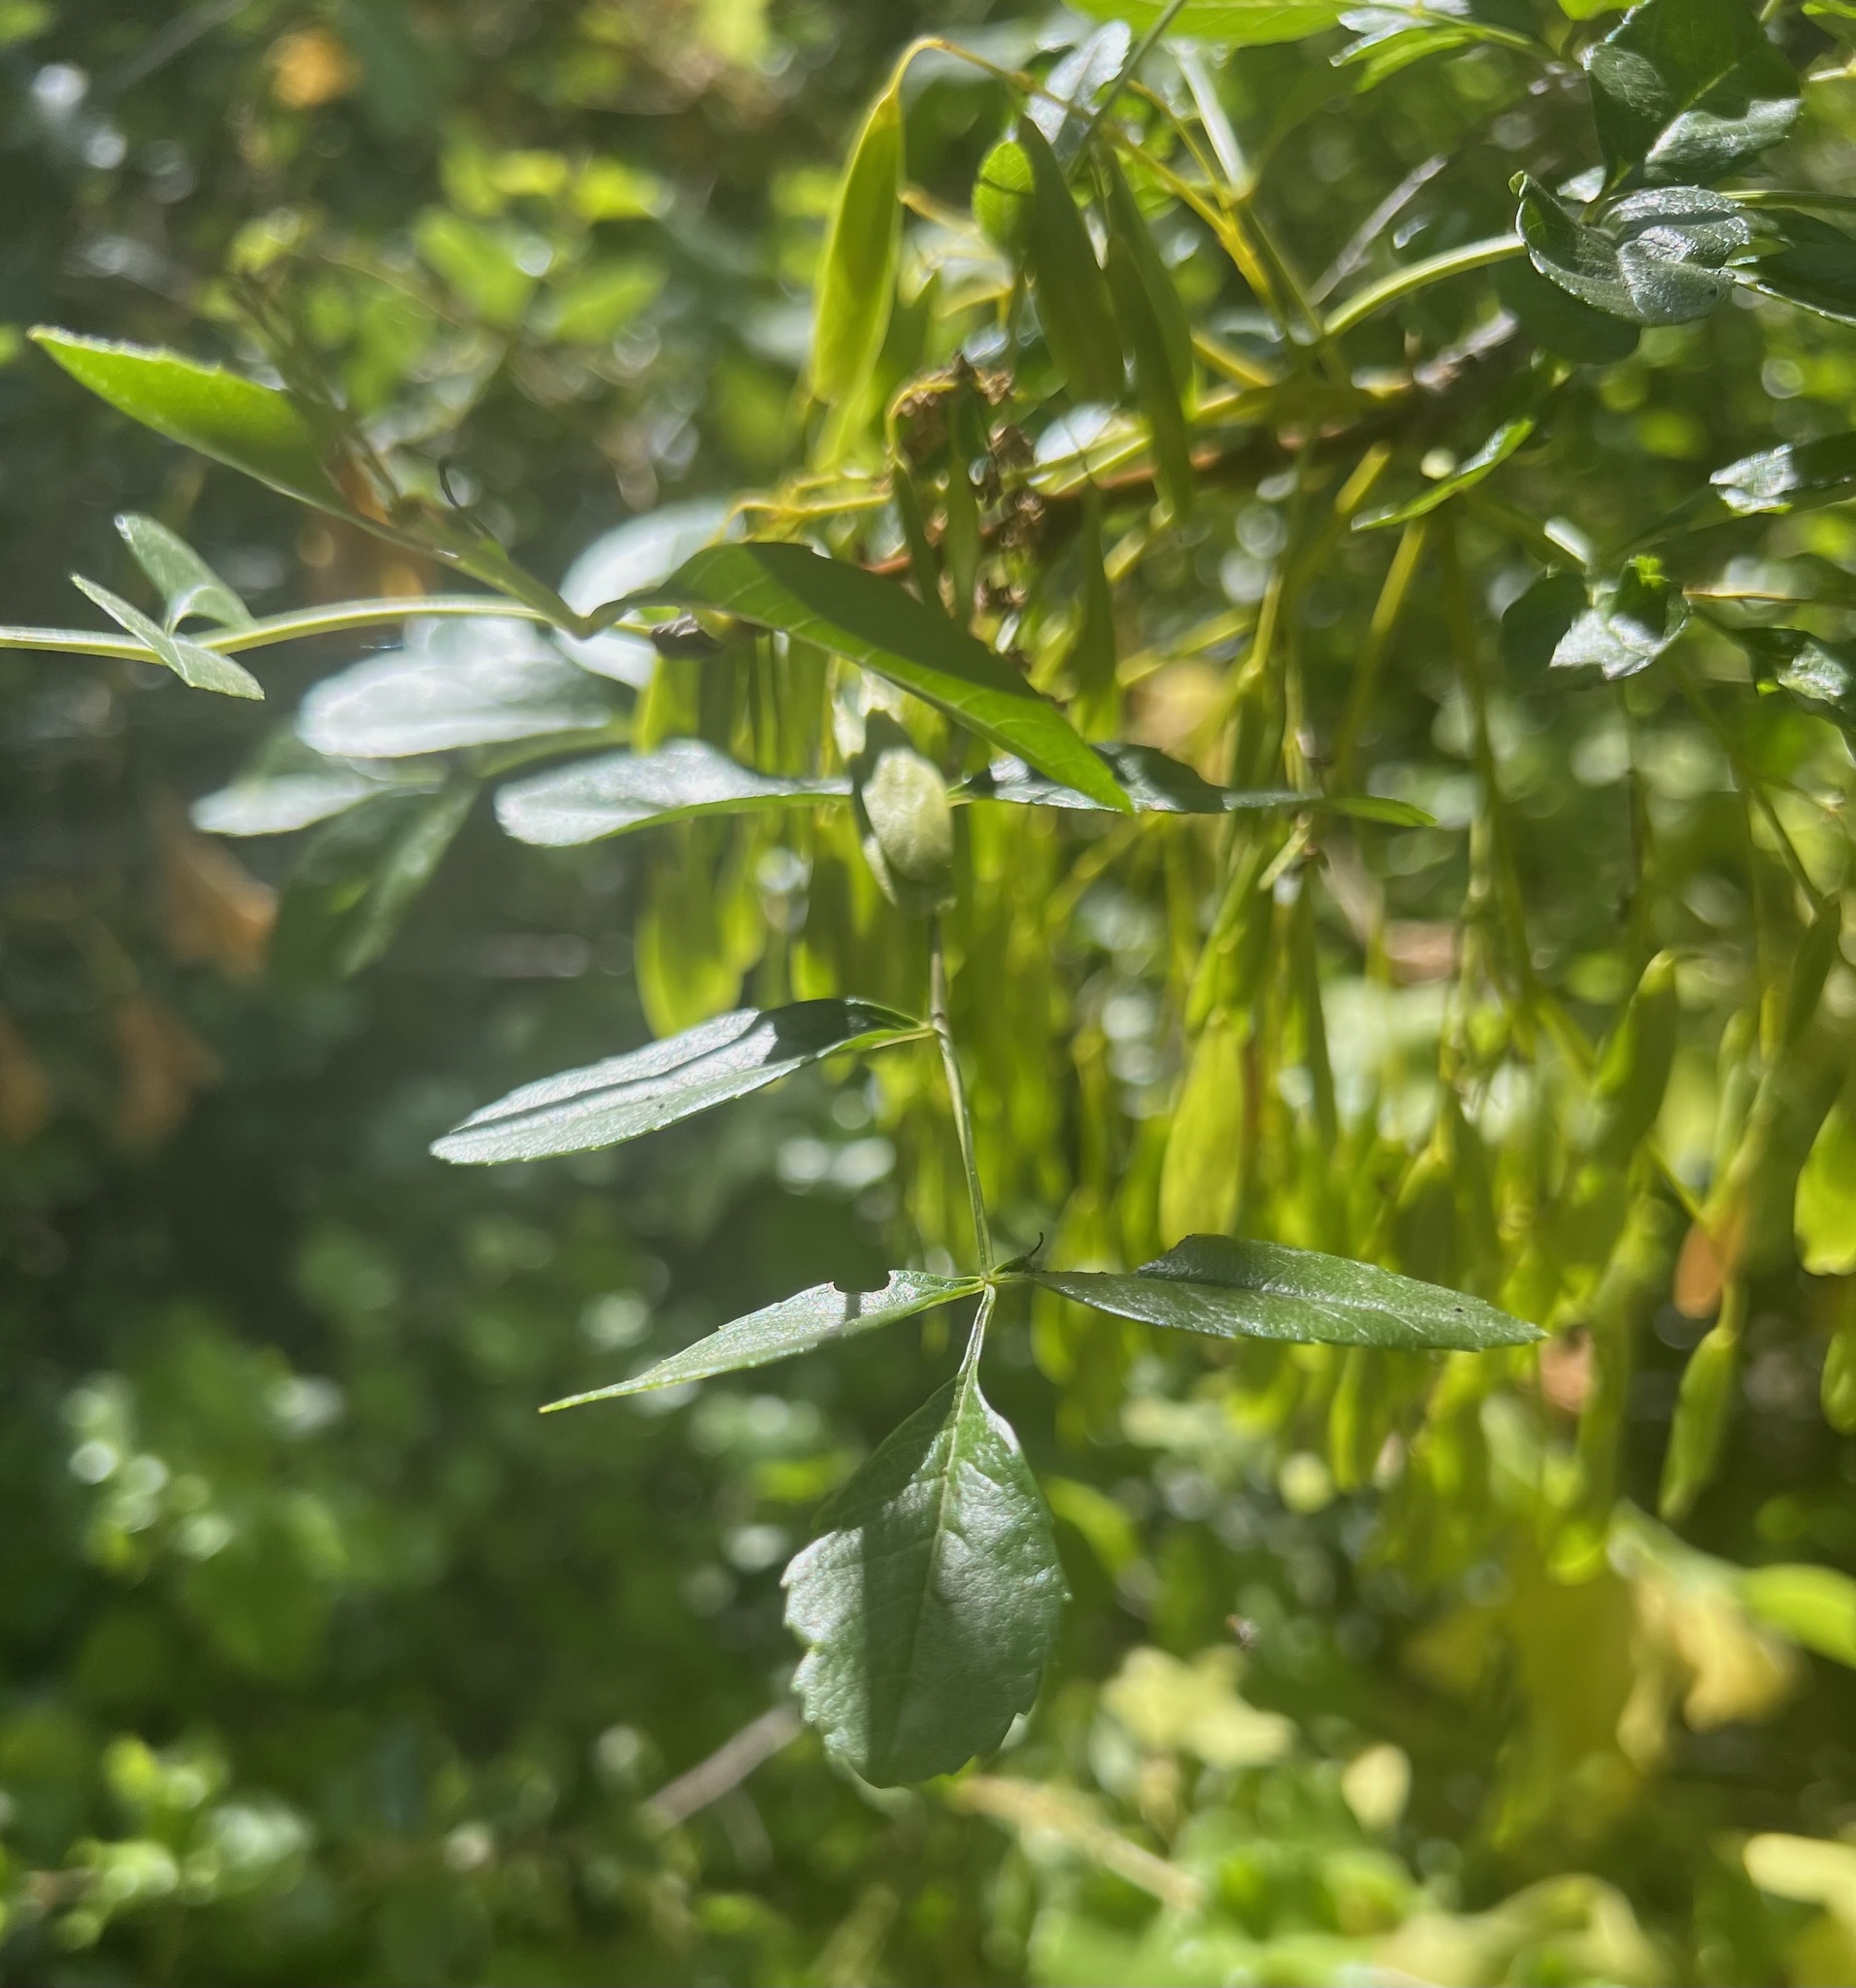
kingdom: Plantae
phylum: Tracheophyta
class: Magnoliopsida
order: Lamiales
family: Oleaceae
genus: Fraxinus
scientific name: Fraxinus dipetala
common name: California ash
